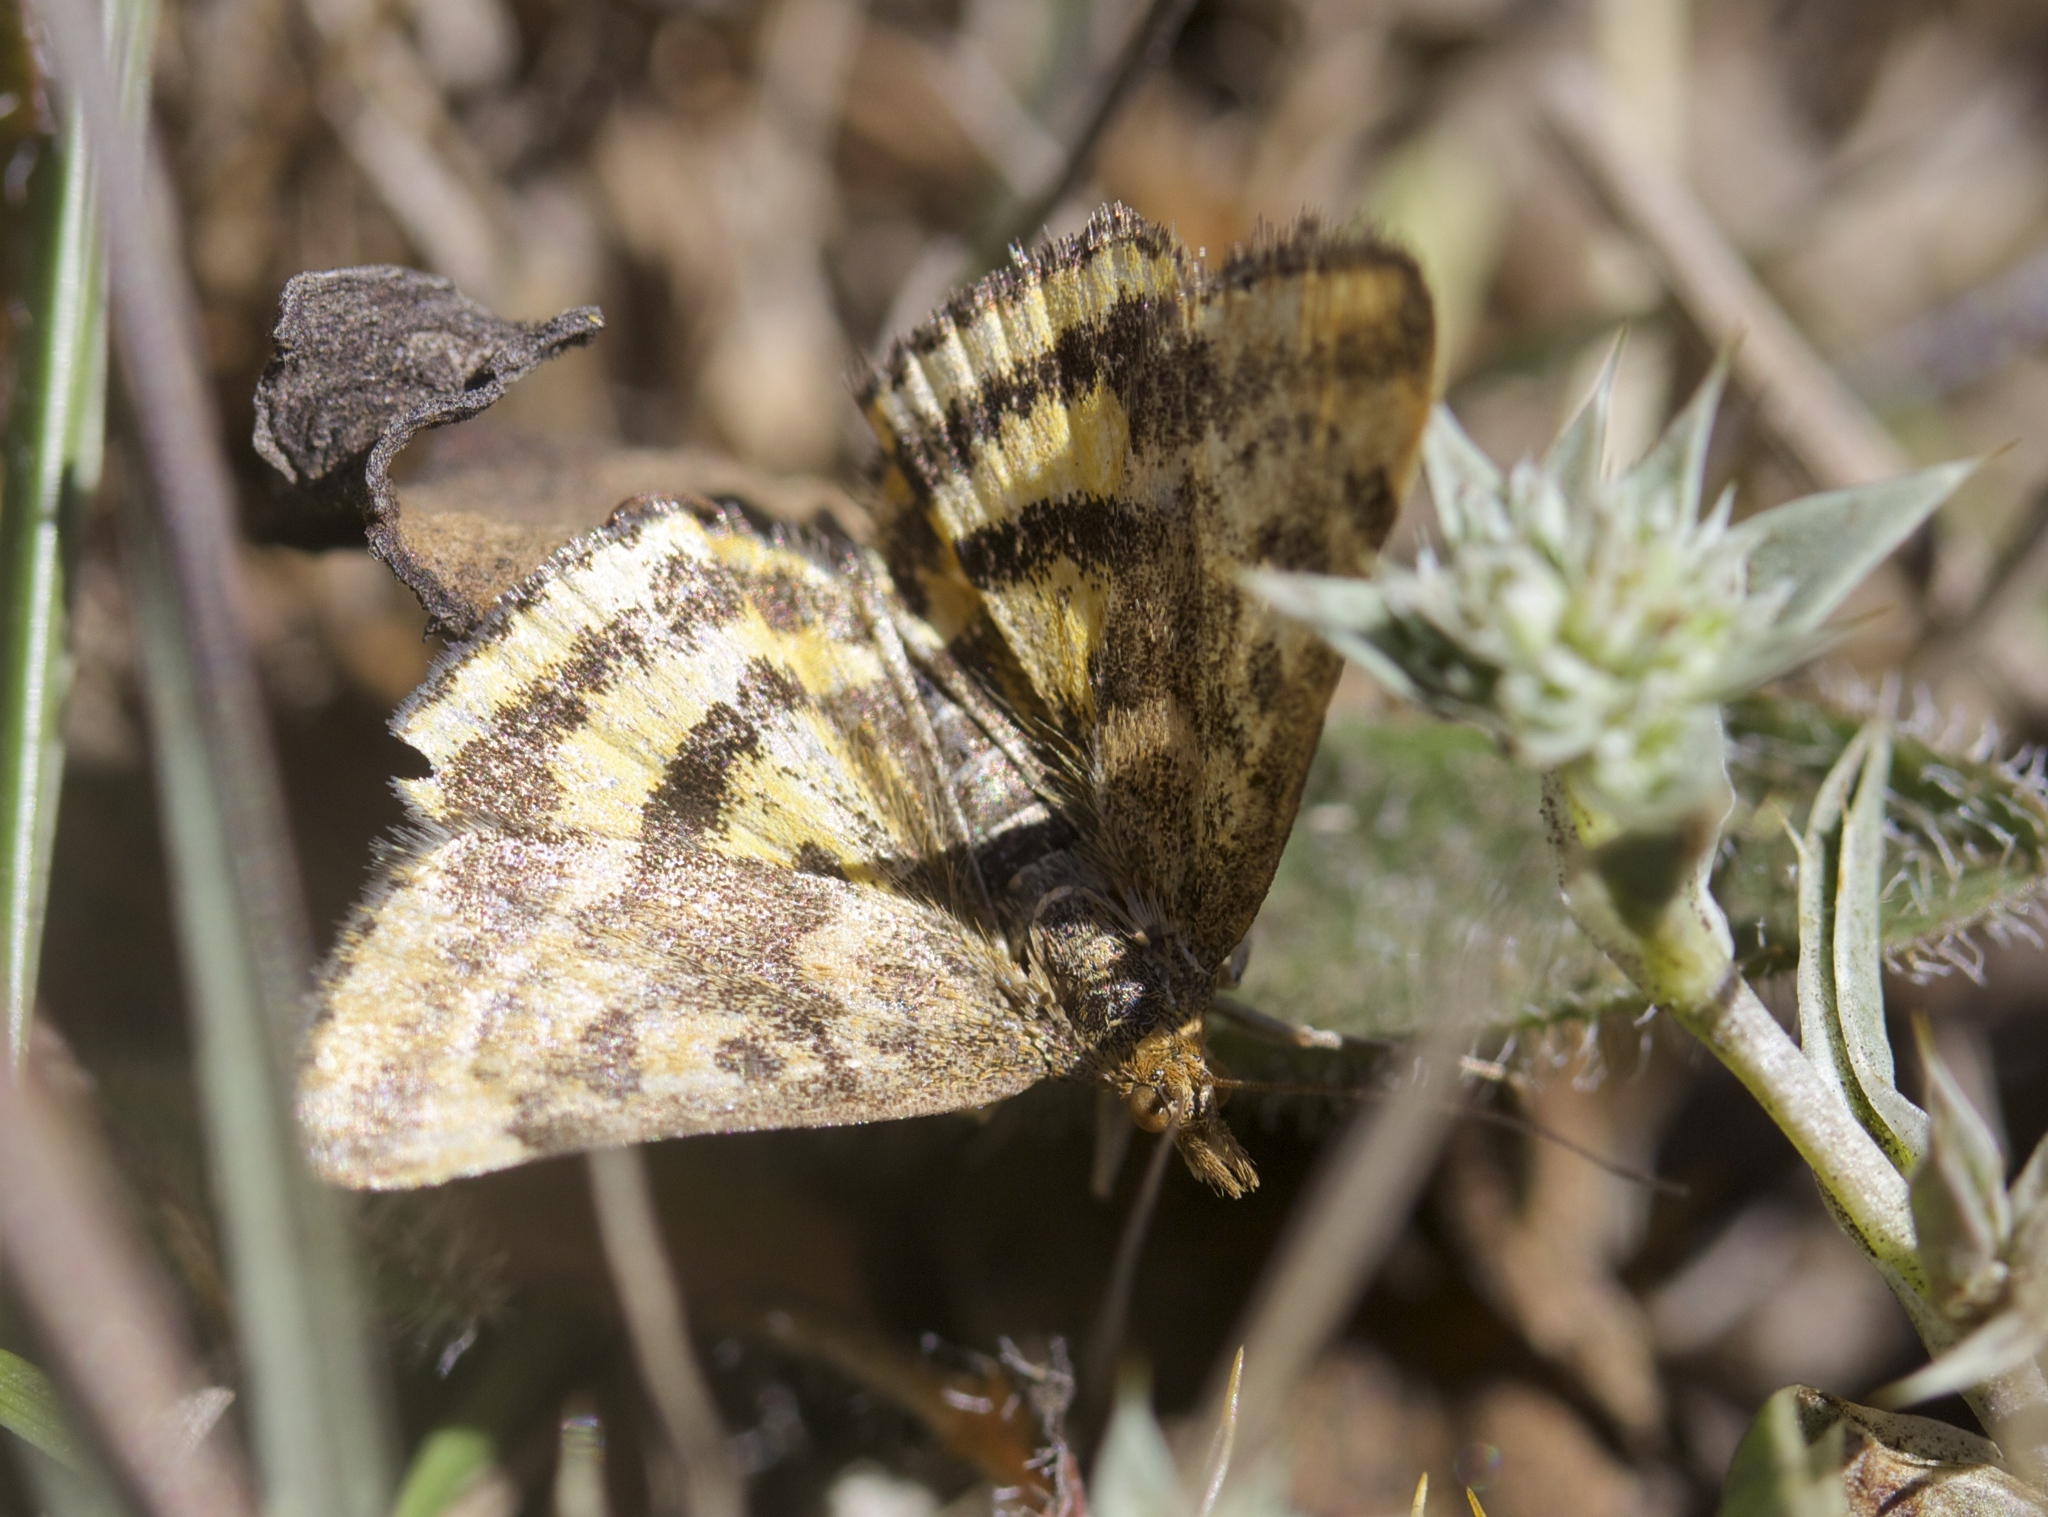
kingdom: Animalia
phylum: Arthropoda
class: Insecta
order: Lepidoptera
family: Crambidae
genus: Pyrausta
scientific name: Pyrausta subsequalis
